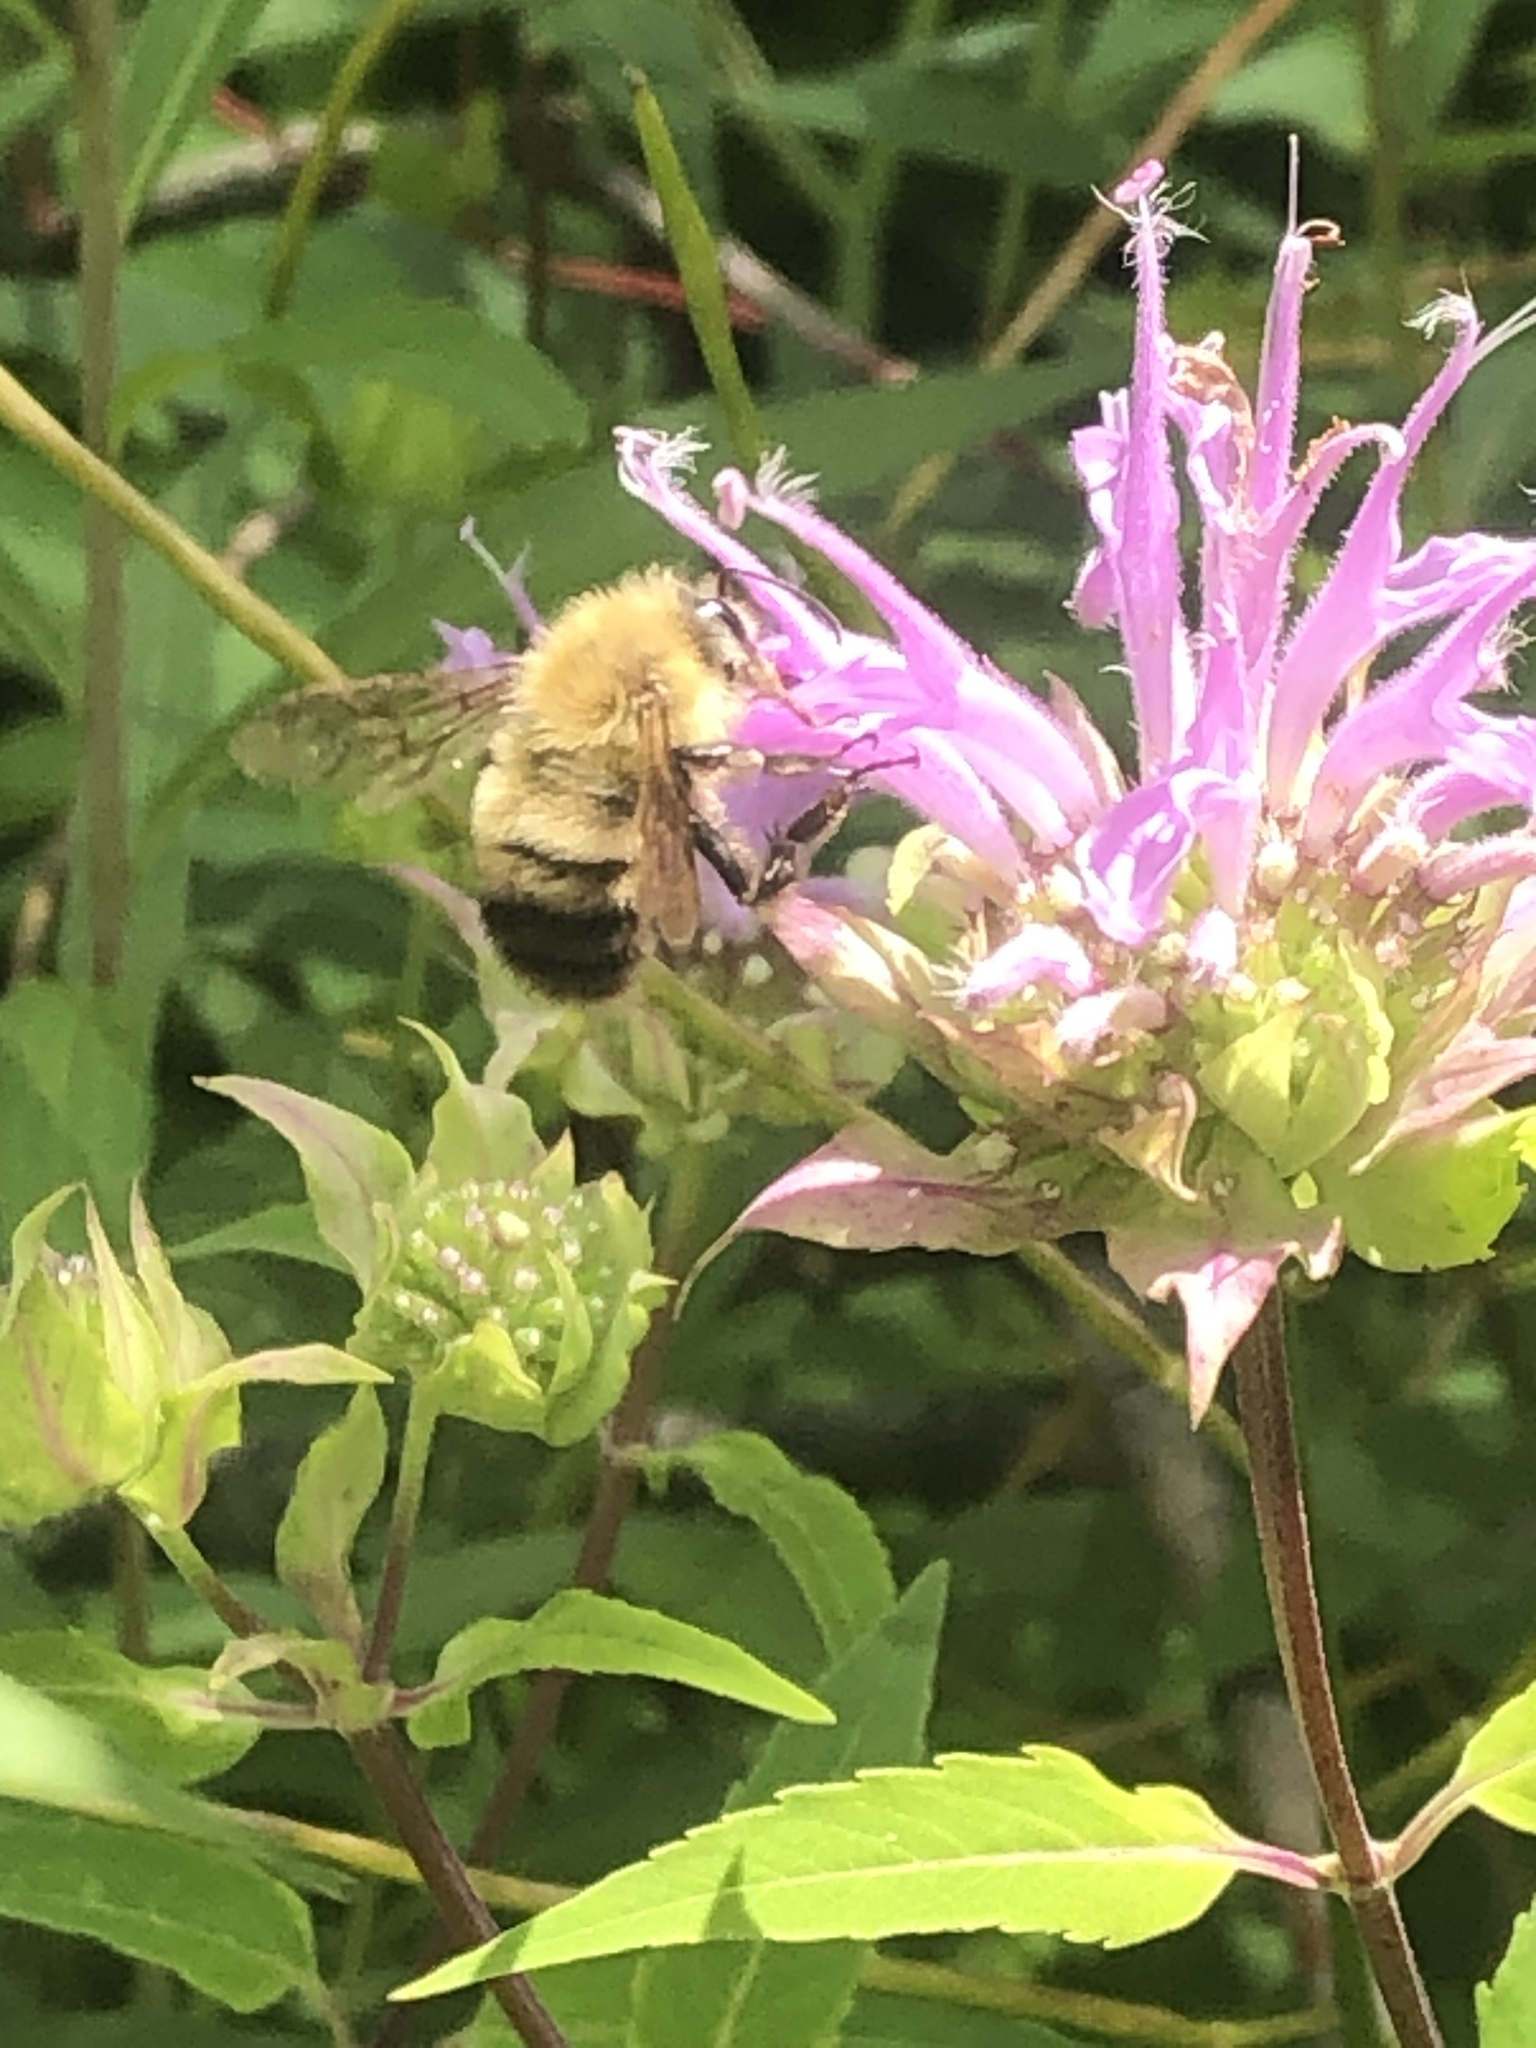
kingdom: Animalia
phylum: Arthropoda
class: Insecta
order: Hymenoptera
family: Apidae
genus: Bombus
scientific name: Bombus perplexus
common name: Confusing bumble bee
